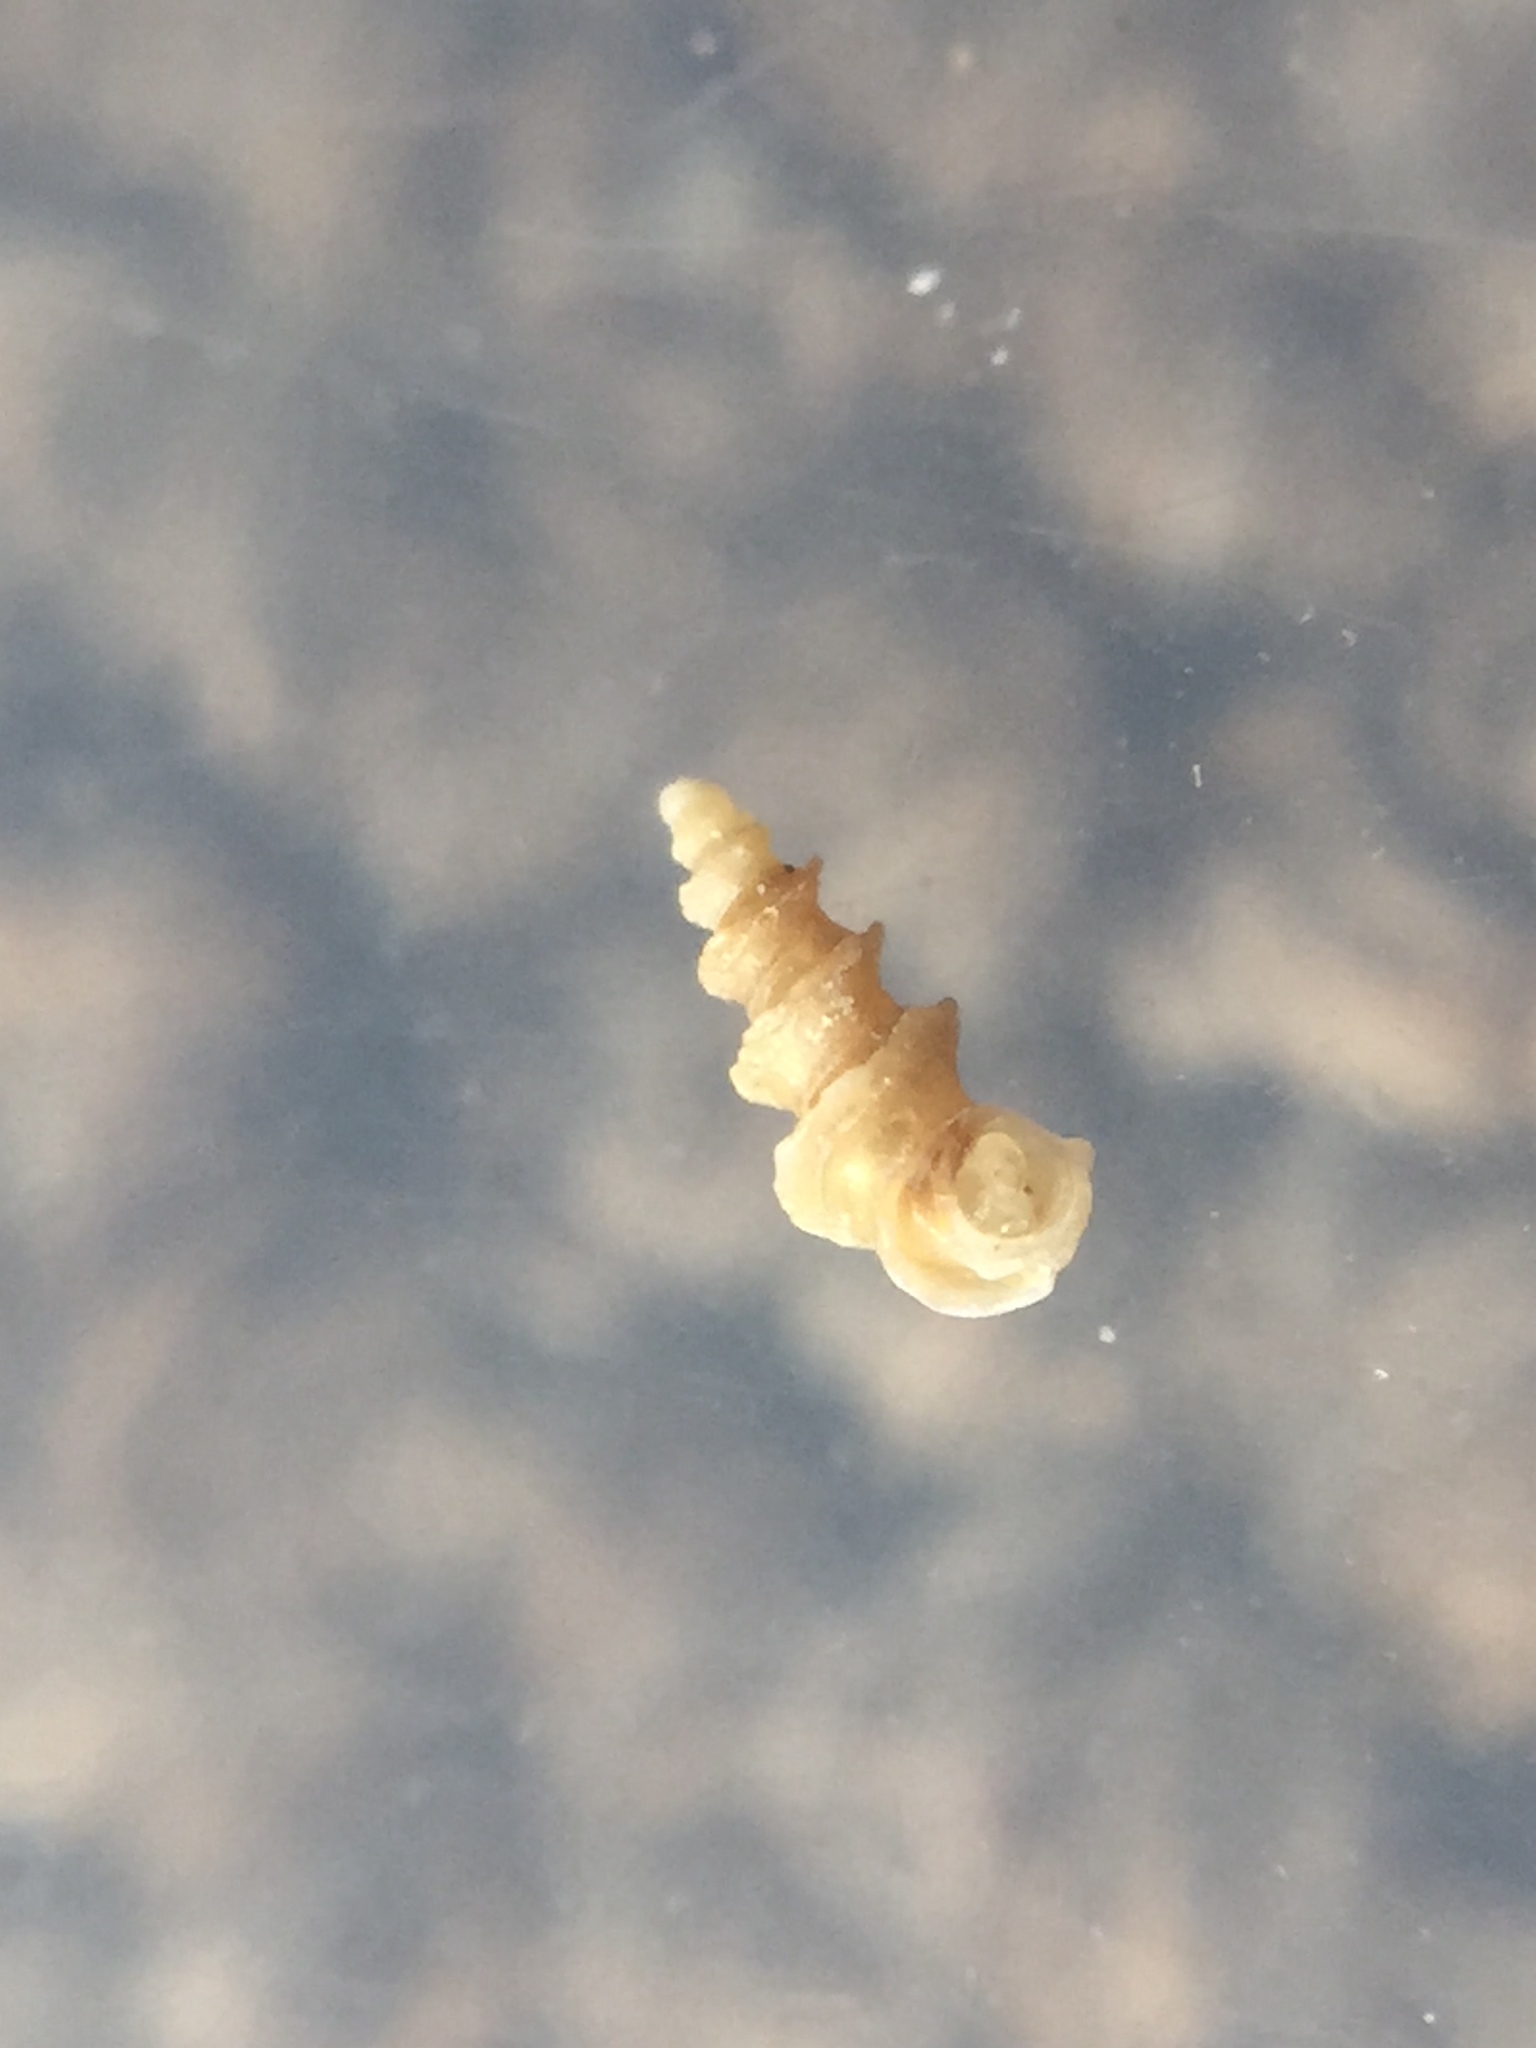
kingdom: Animalia
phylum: Mollusca
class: Gastropoda
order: Littorinimorpha
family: Lironobidae
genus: Merelina
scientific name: Merelina coronata
